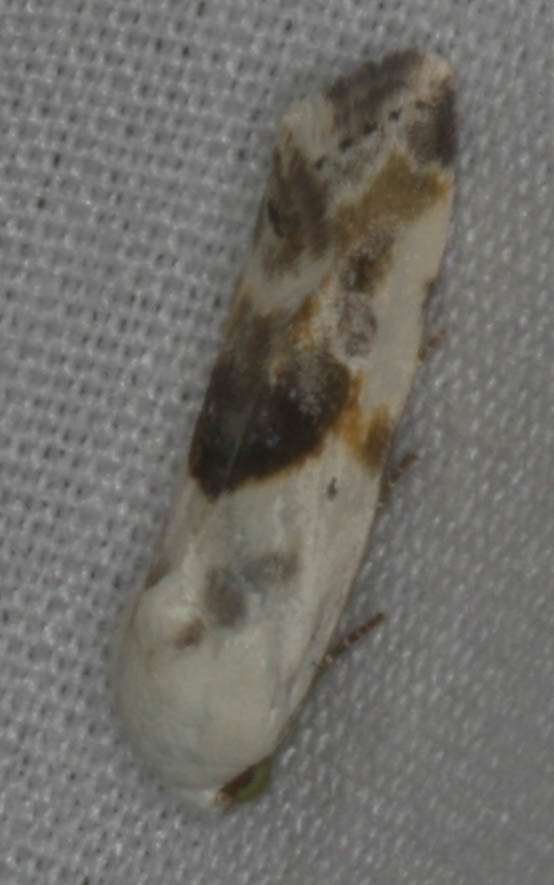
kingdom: Animalia
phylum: Arthropoda
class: Insecta
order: Lepidoptera
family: Noctuidae
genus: Acontia
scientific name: Acontia candefacta
